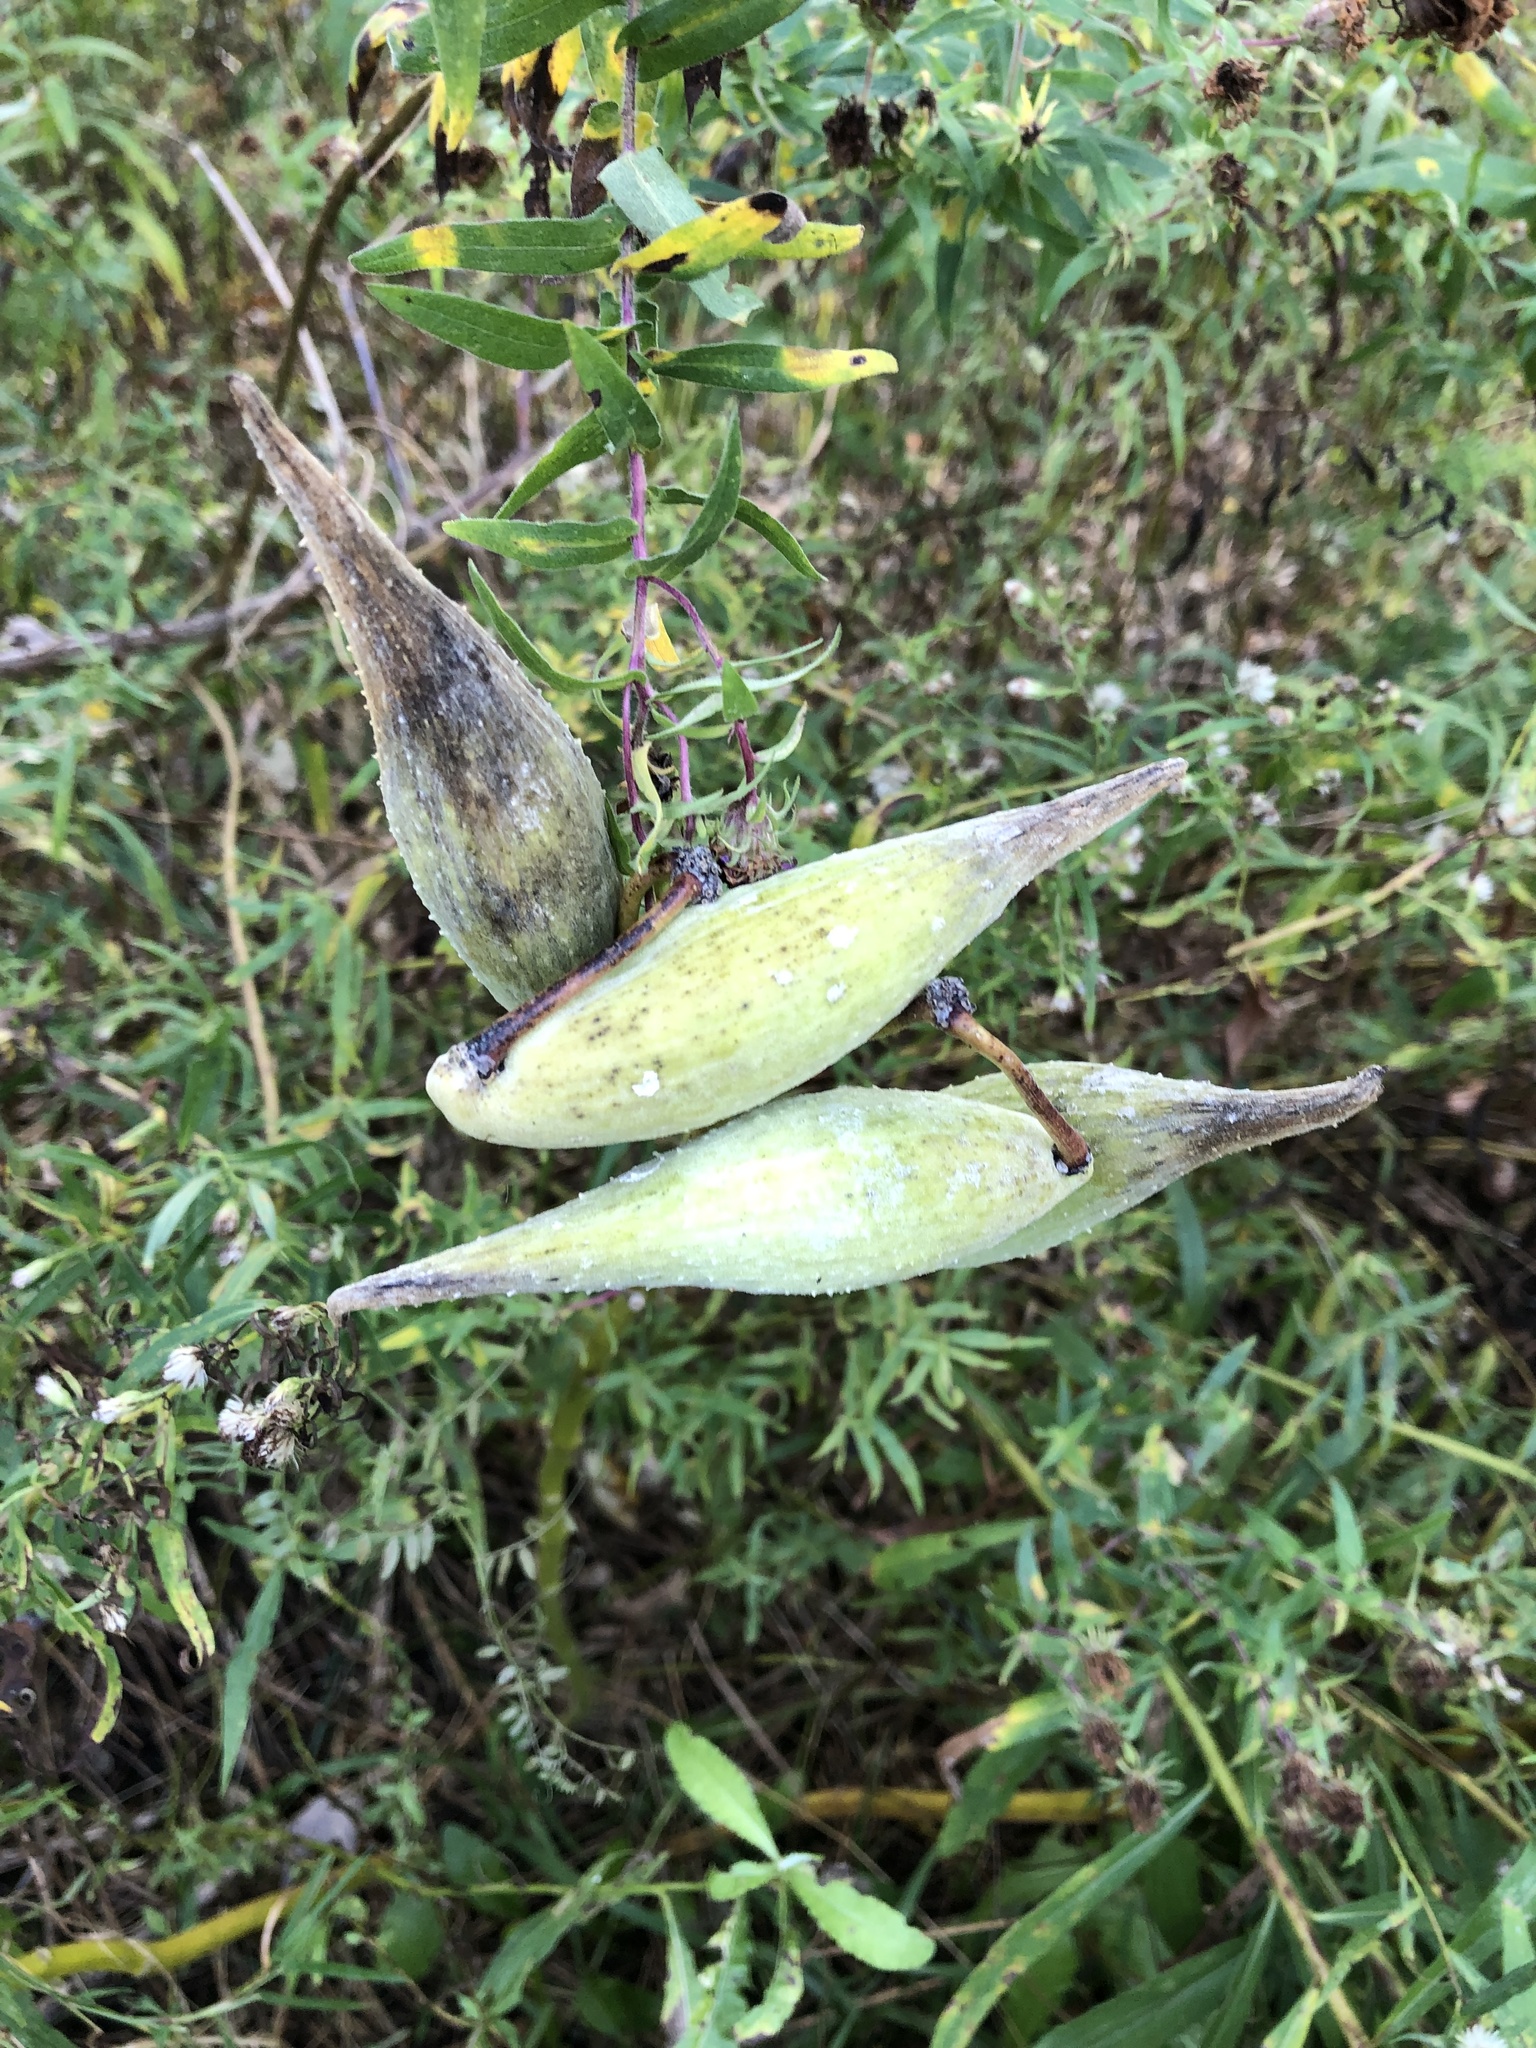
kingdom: Plantae
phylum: Tracheophyta
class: Magnoliopsida
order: Gentianales
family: Apocynaceae
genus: Asclepias
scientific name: Asclepias syriaca
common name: Common milkweed
